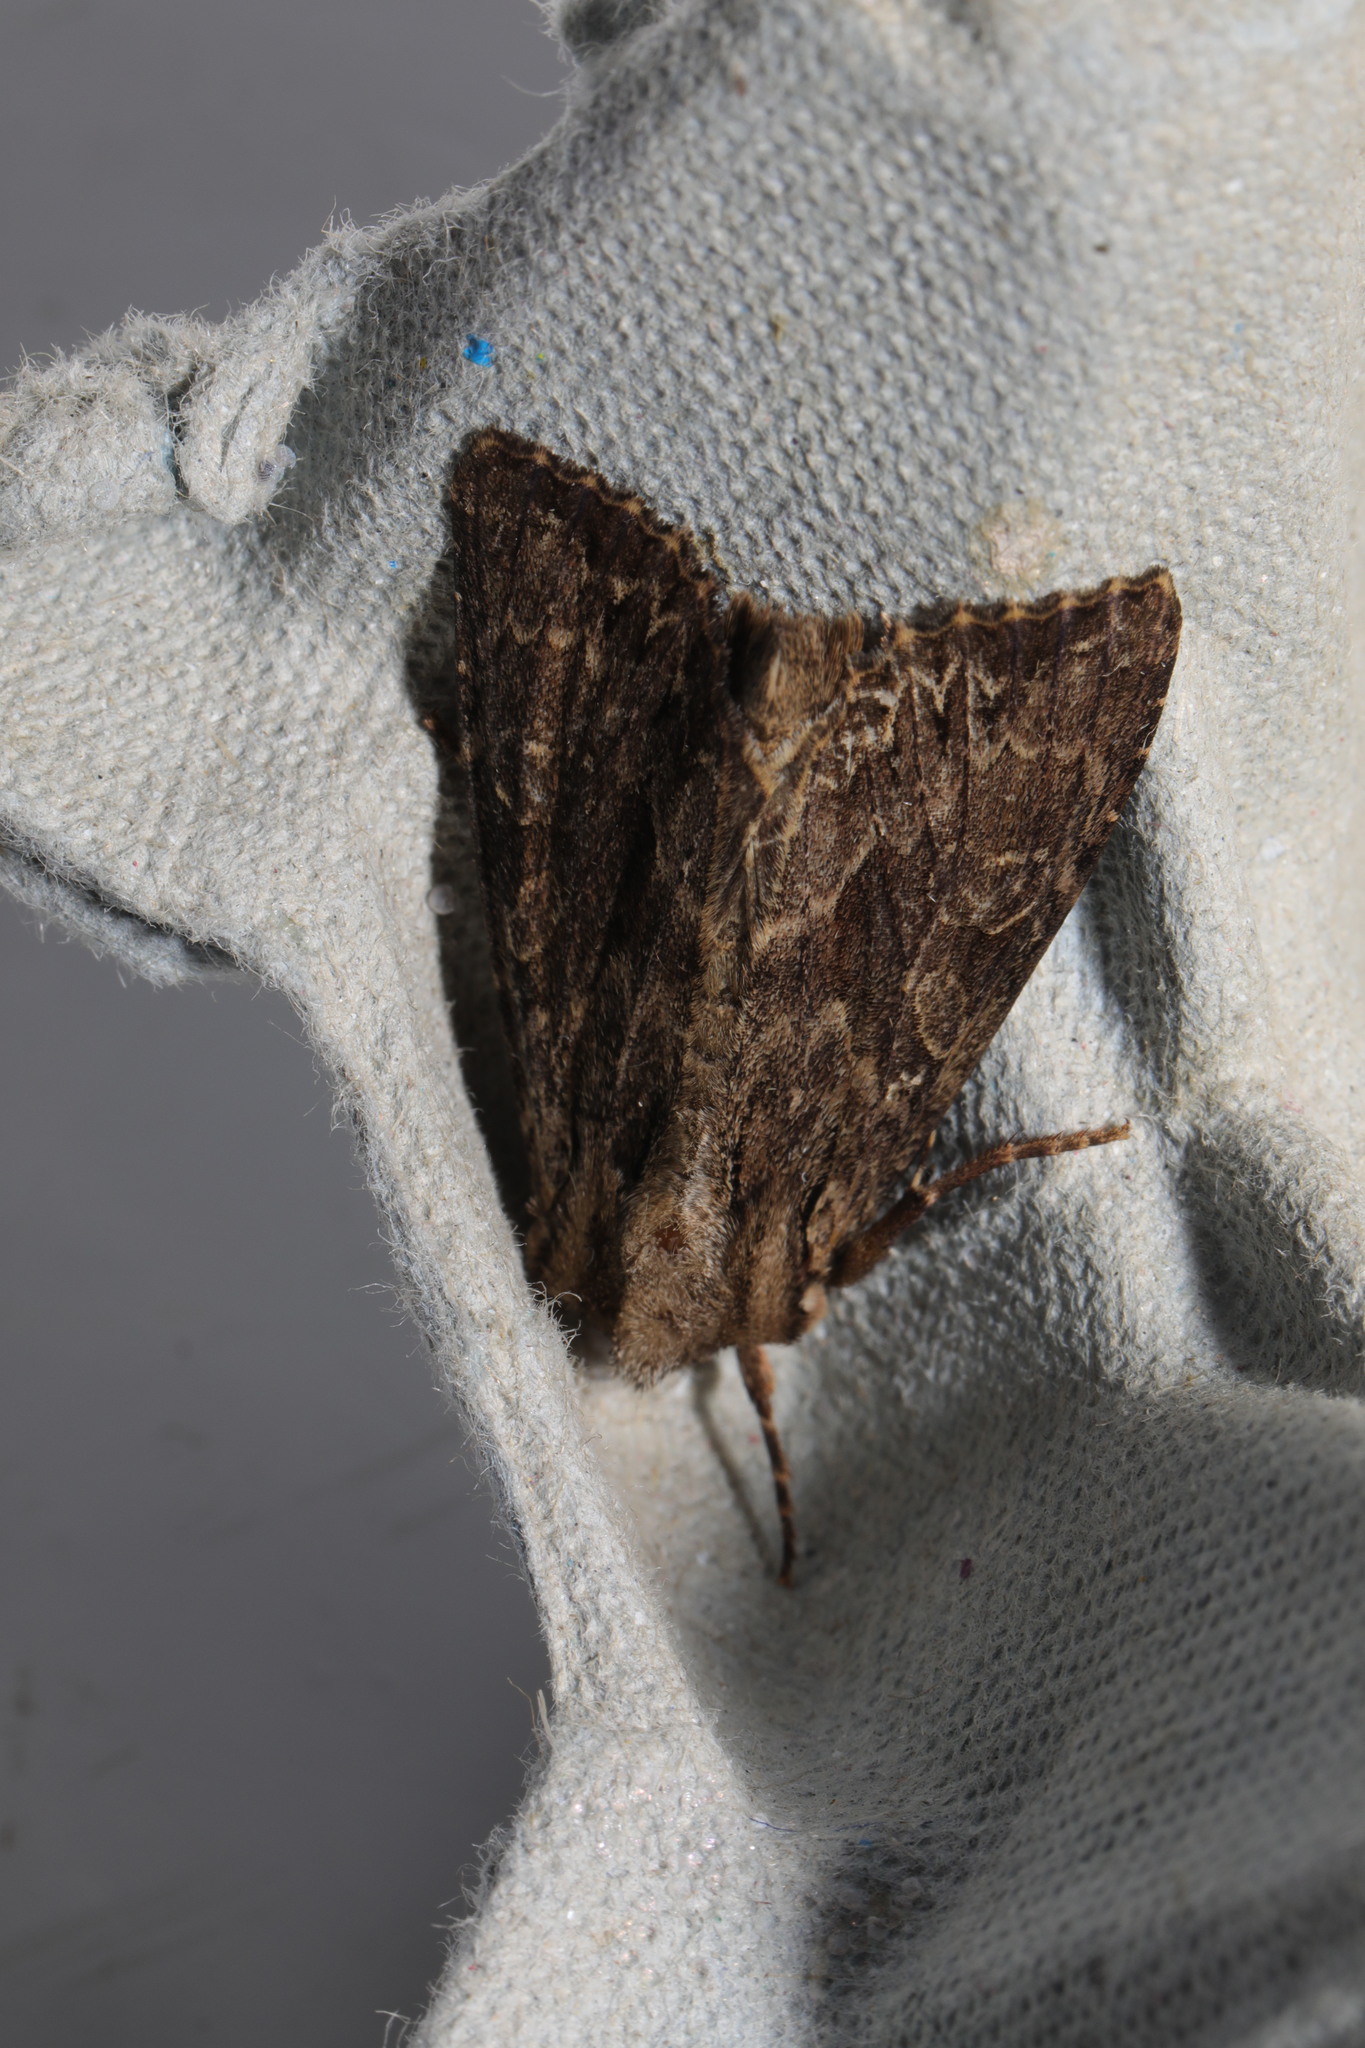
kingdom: Animalia
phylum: Arthropoda
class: Insecta
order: Lepidoptera
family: Noctuidae
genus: Apamea
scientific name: Apamea monoglypha
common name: Dark arches
